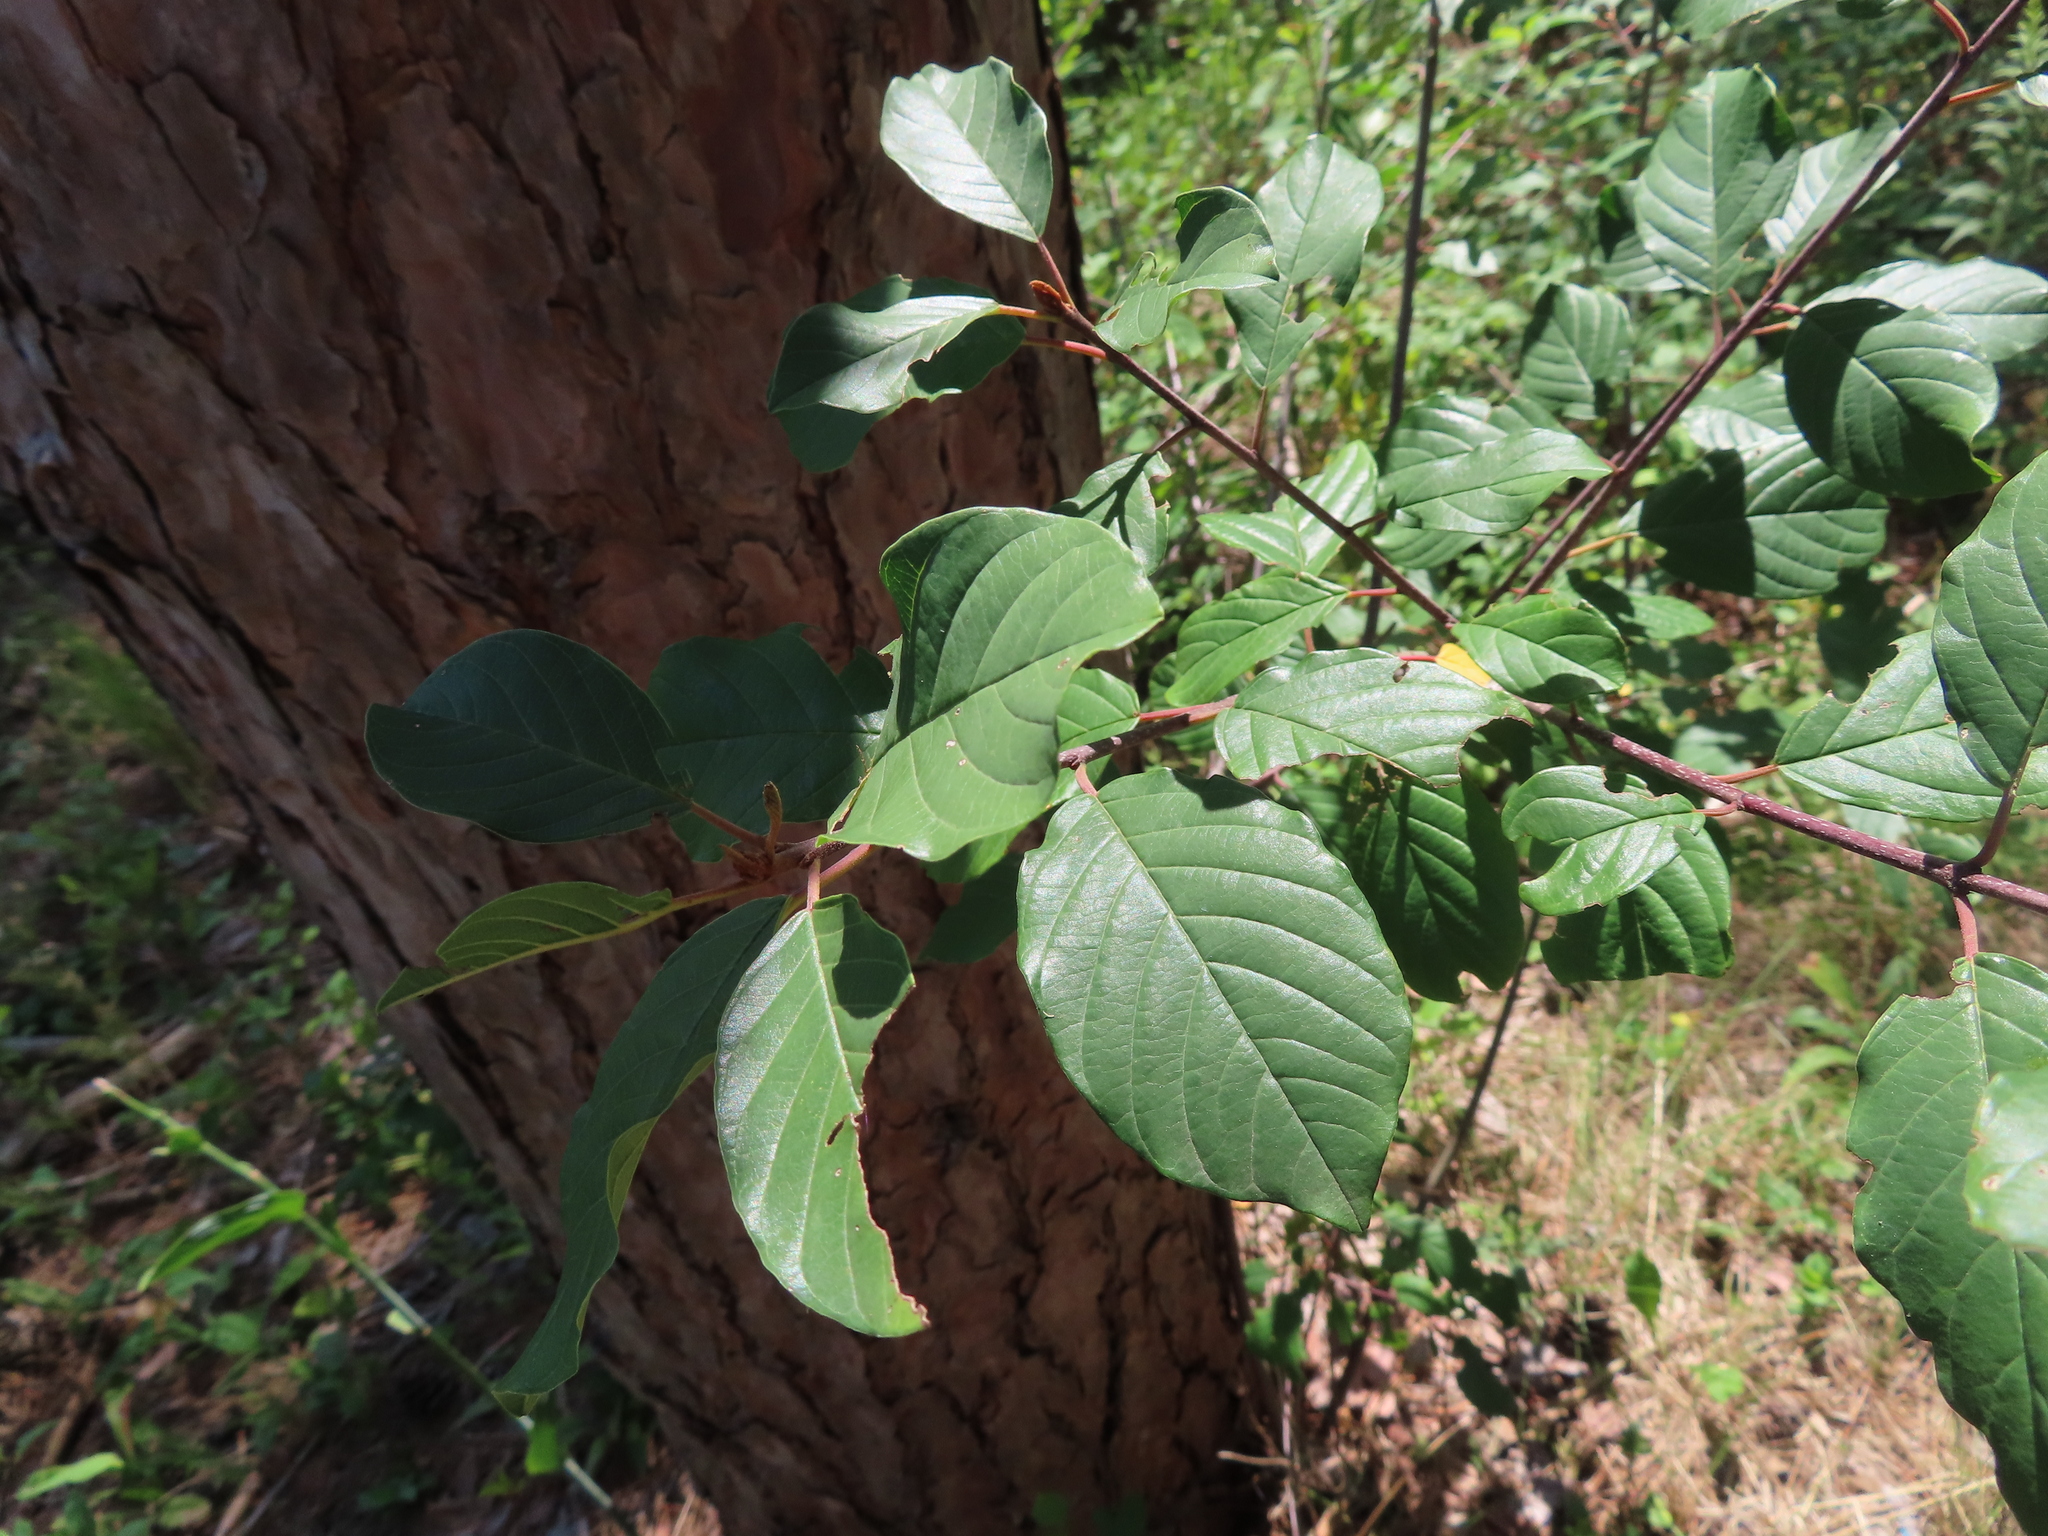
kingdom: Plantae
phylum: Tracheophyta
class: Magnoliopsida
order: Rosales
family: Rhamnaceae
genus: Frangula
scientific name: Frangula alnus
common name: Alder buckthorn
